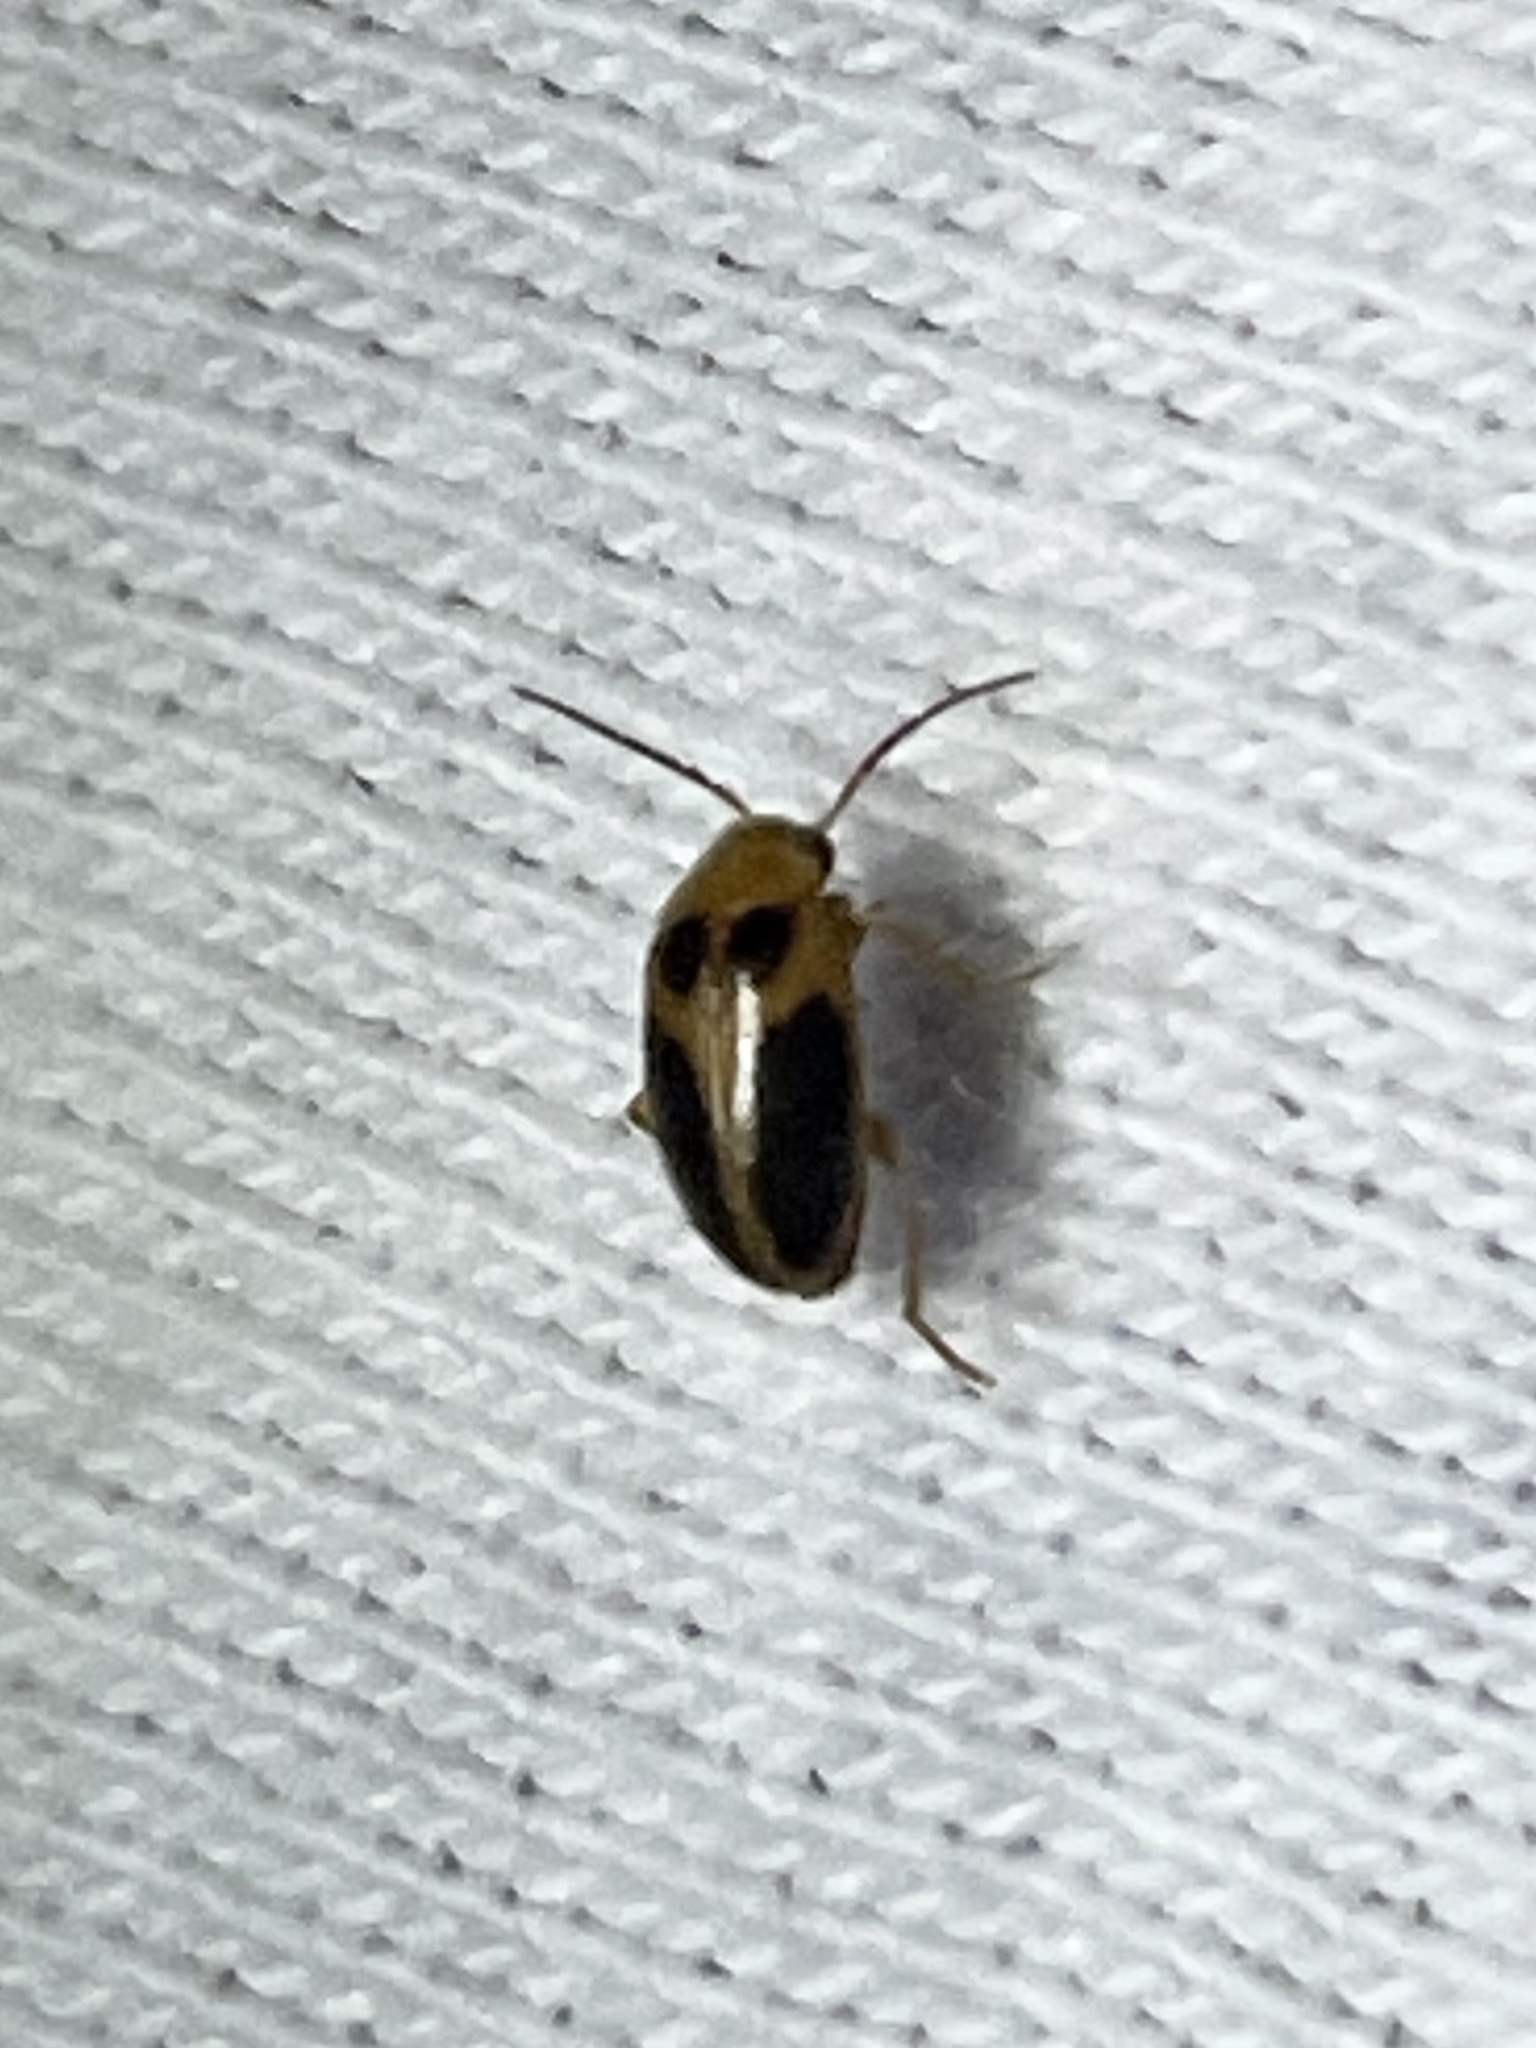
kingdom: Animalia
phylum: Arthropoda
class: Insecta
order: Coleoptera
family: Scirtidae
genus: Sacodes
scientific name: Sacodes pulchella
